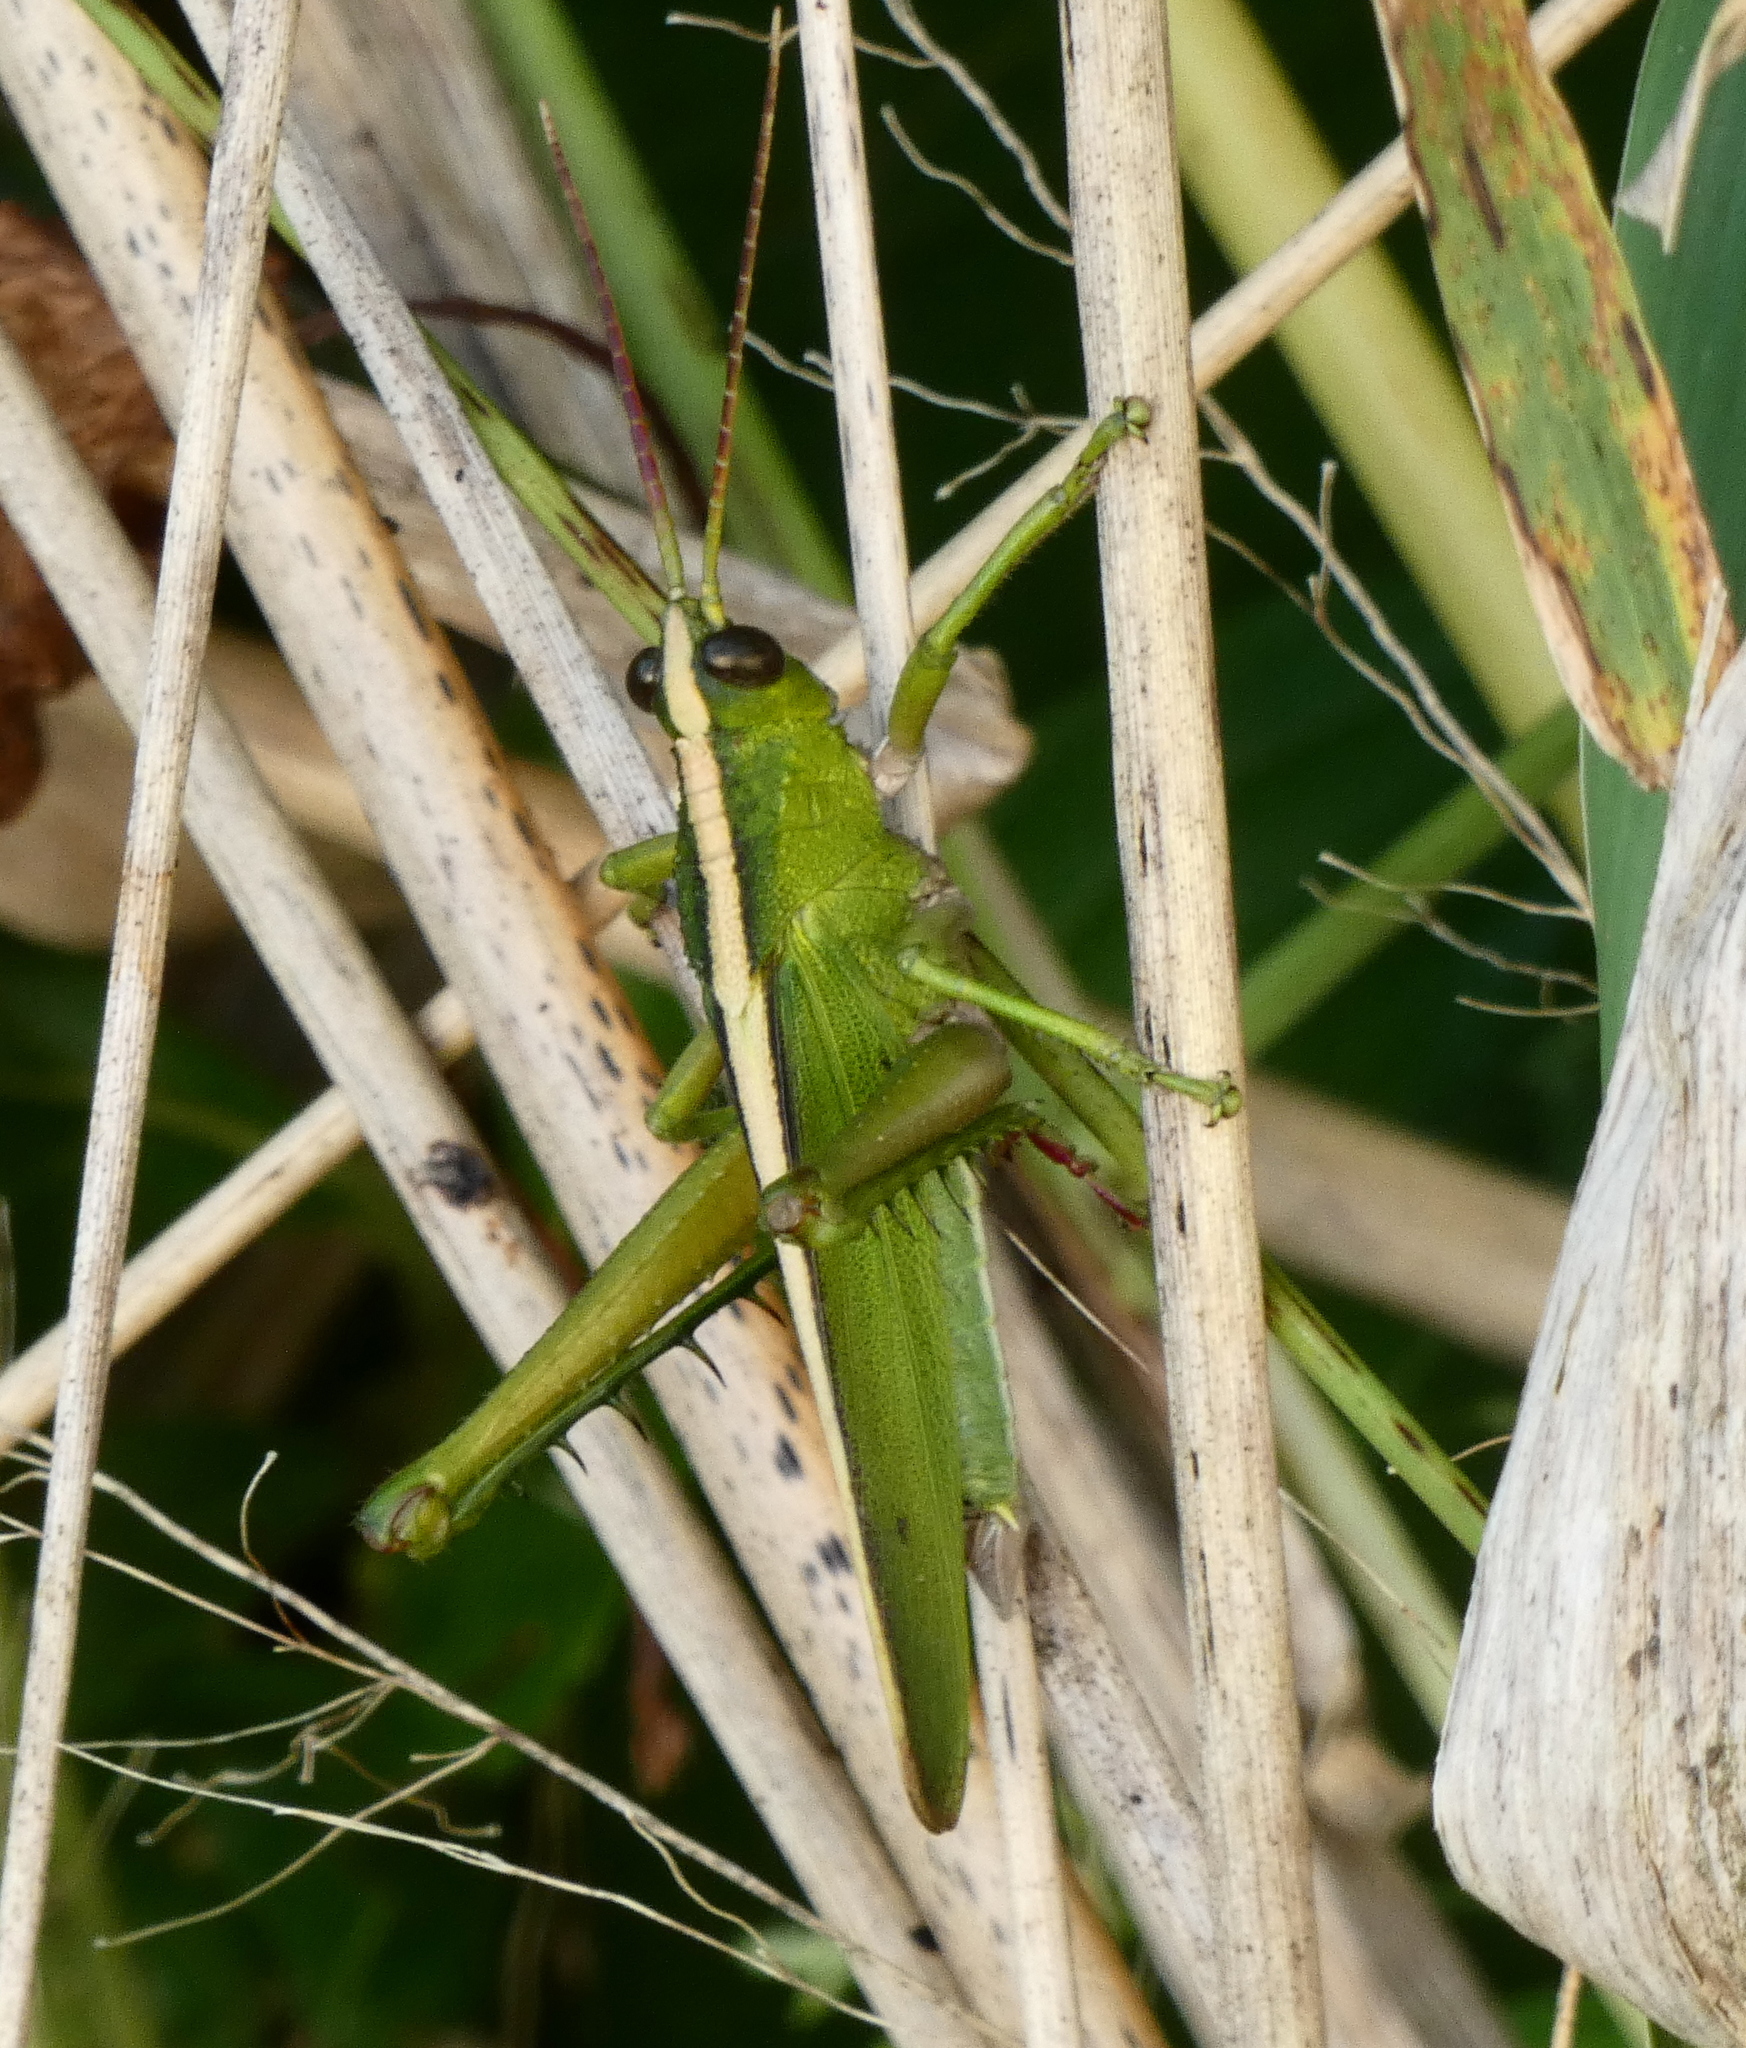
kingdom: Animalia
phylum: Arthropoda
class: Insecta
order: Orthoptera
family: Romaleidae
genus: Agriacris
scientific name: Agriacris auripennis
